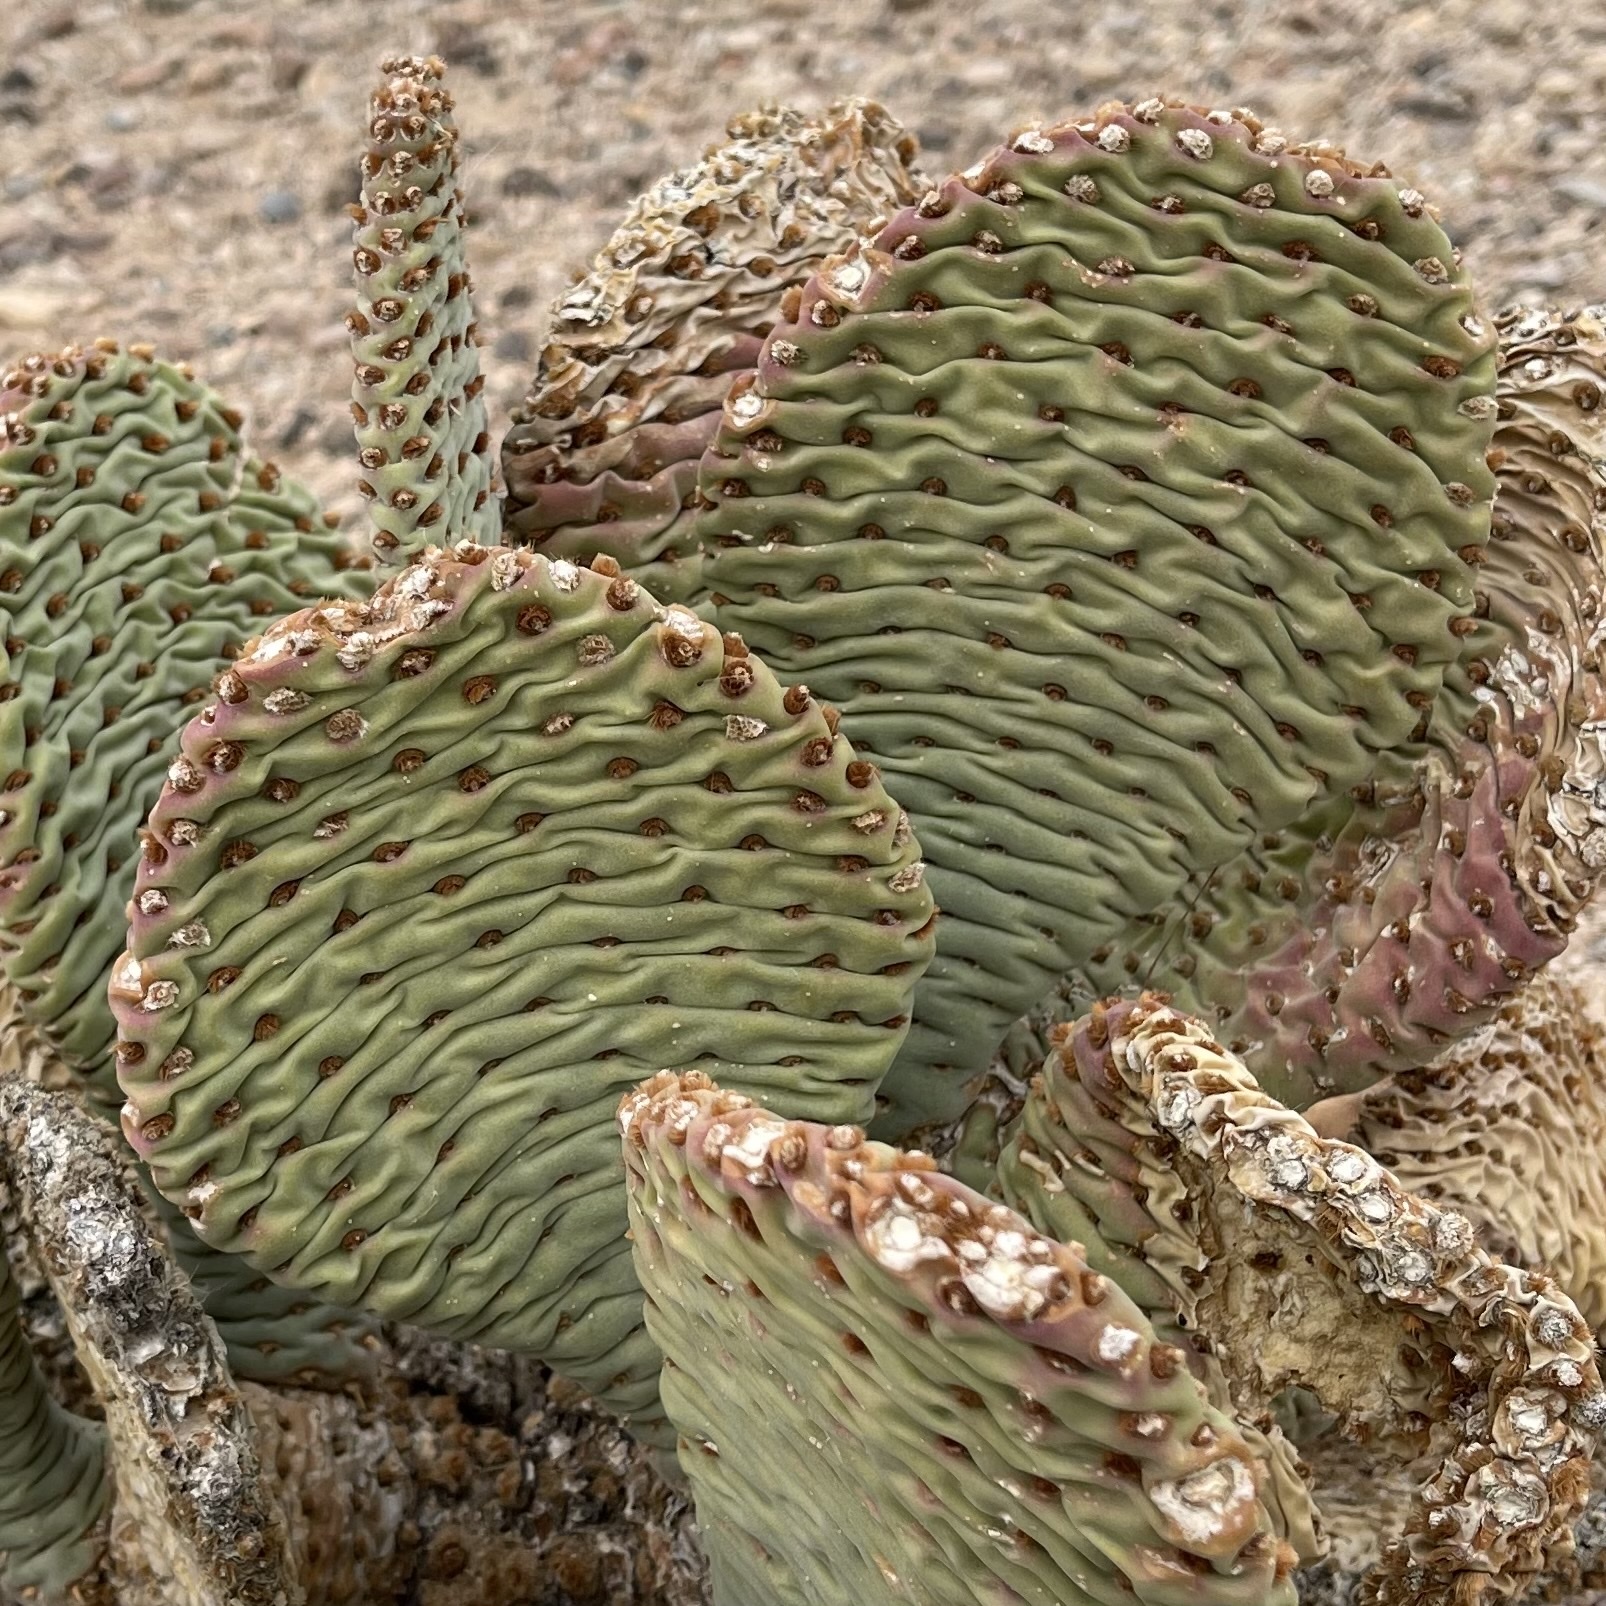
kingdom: Plantae
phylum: Tracheophyta
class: Magnoliopsida
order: Caryophyllales
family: Cactaceae
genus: Opuntia
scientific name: Opuntia basilaris
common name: Beavertail prickly-pear
